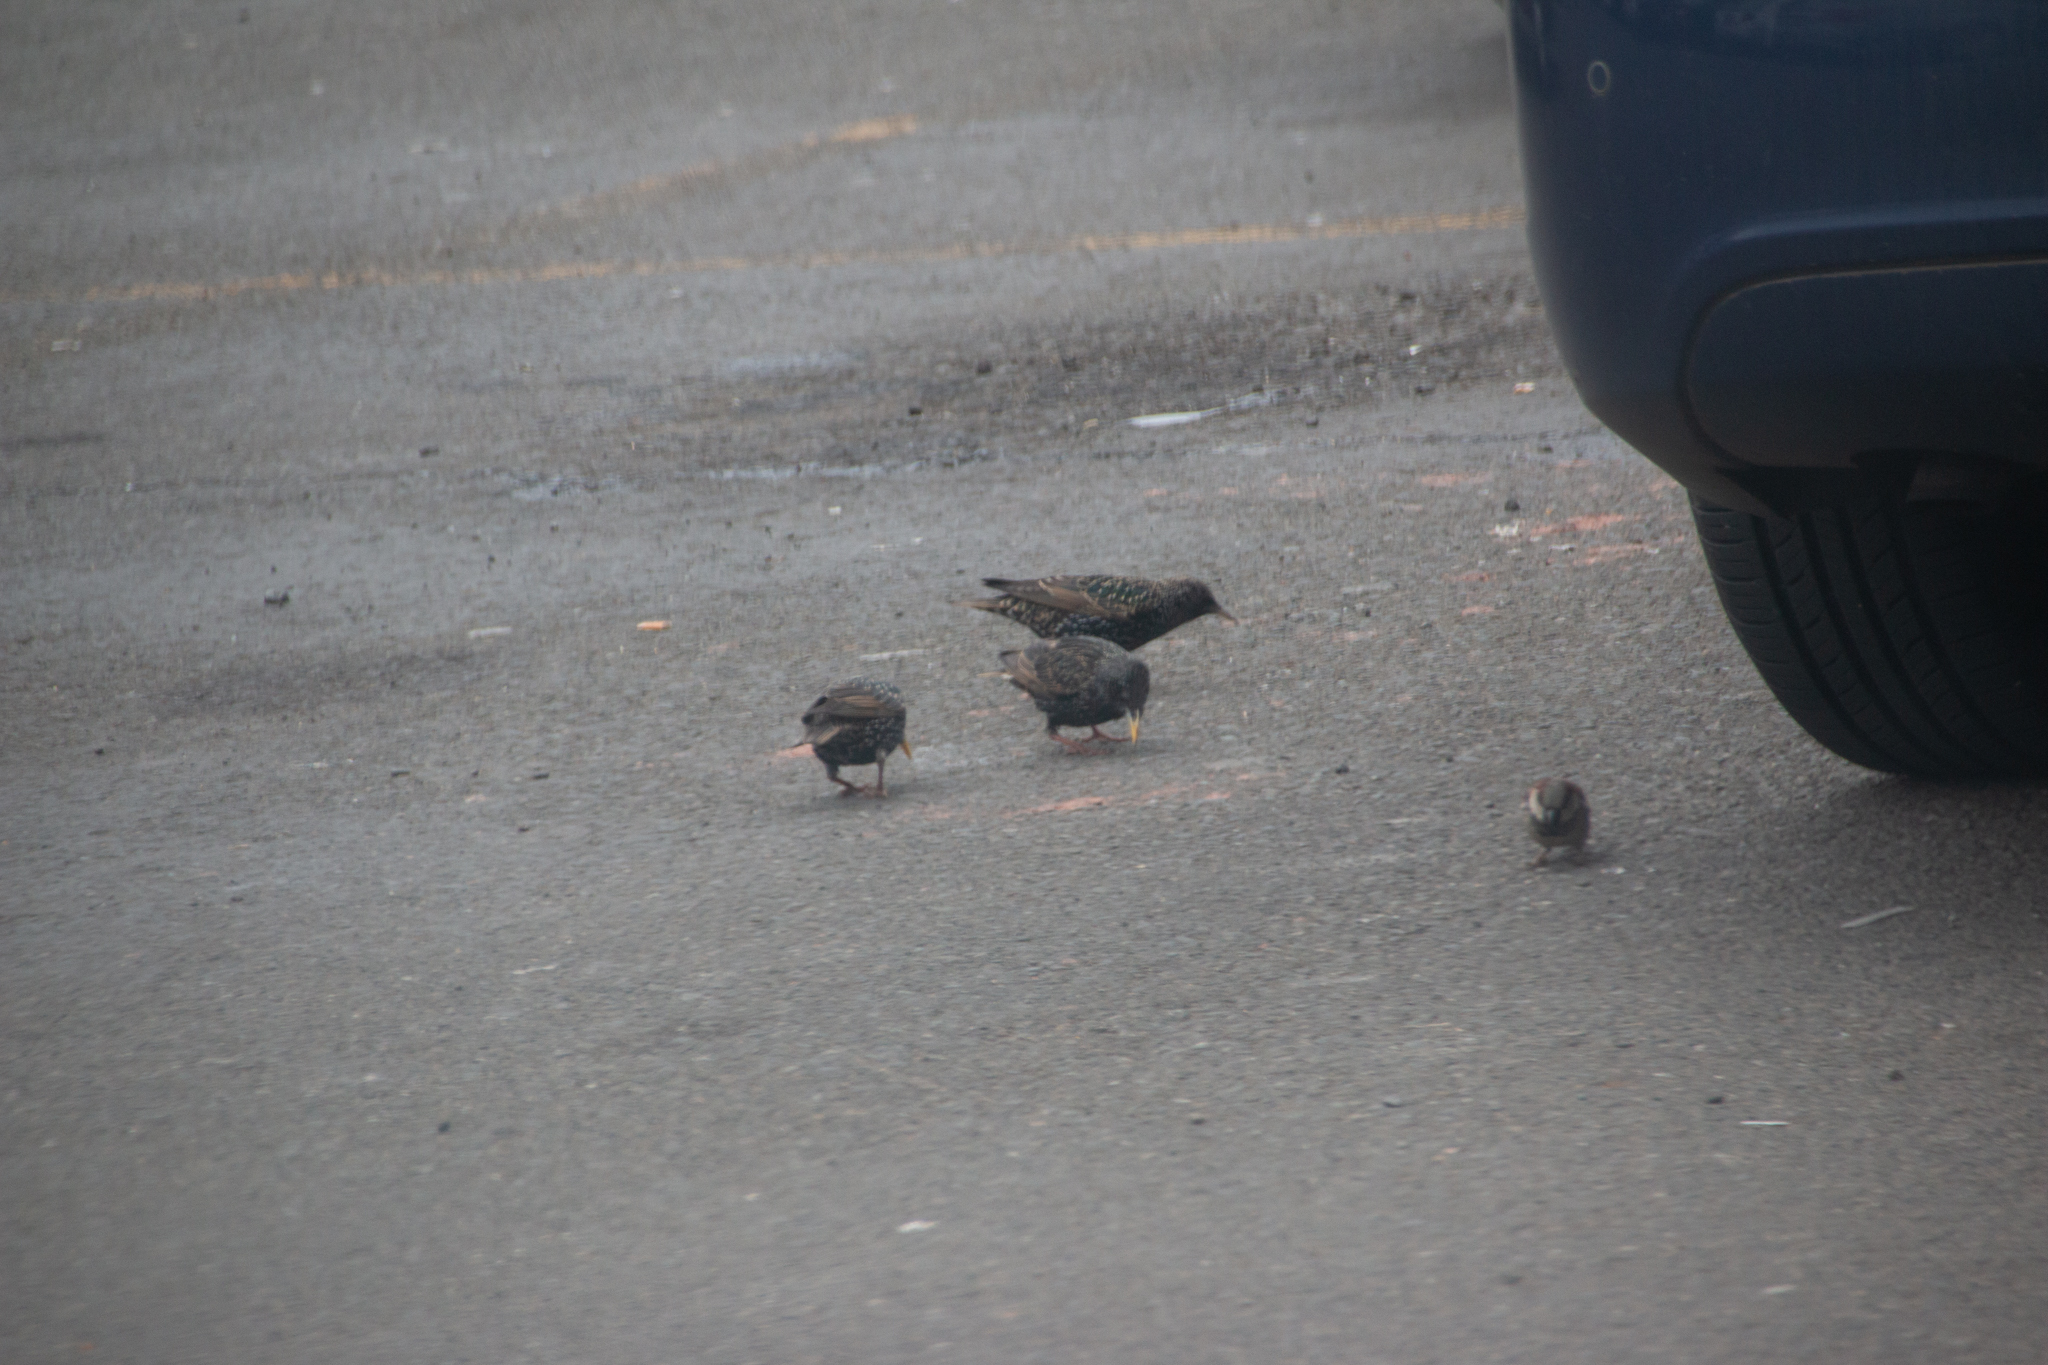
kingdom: Animalia
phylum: Chordata
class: Aves
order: Passeriformes
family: Sturnidae
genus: Sturnus
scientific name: Sturnus vulgaris
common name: Common starling
